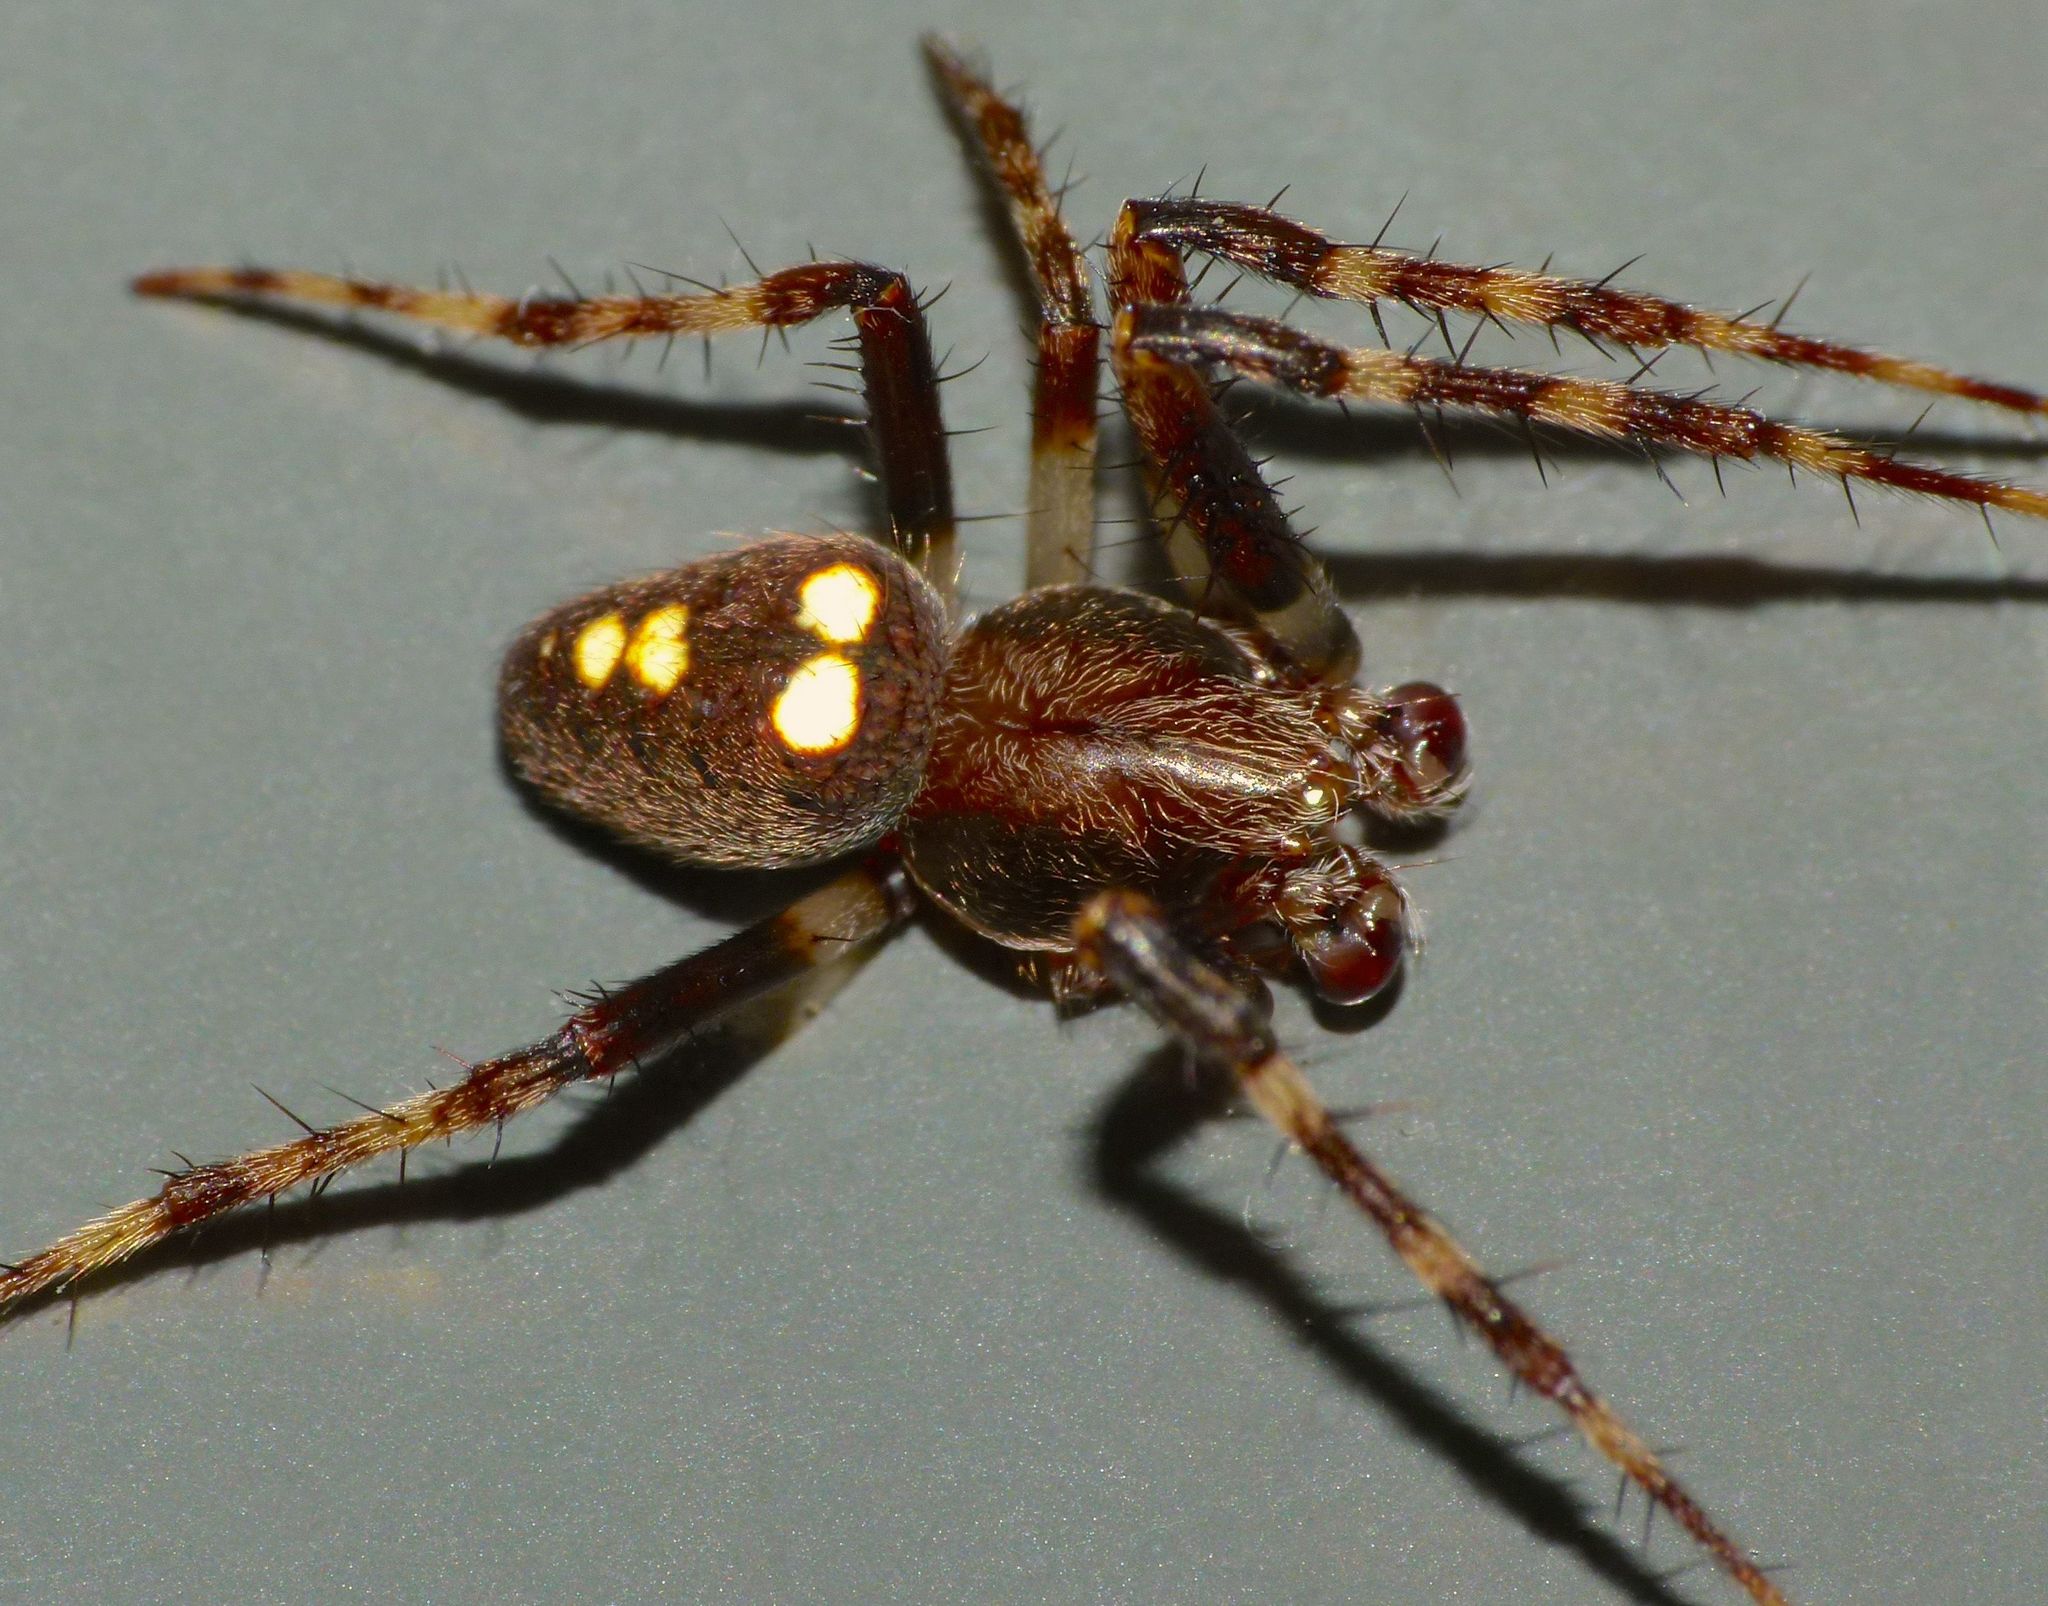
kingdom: Animalia
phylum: Arthropoda
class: Arachnida
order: Araneae
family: Araneidae
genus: Zealaranea
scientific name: Zealaranea trinotata
